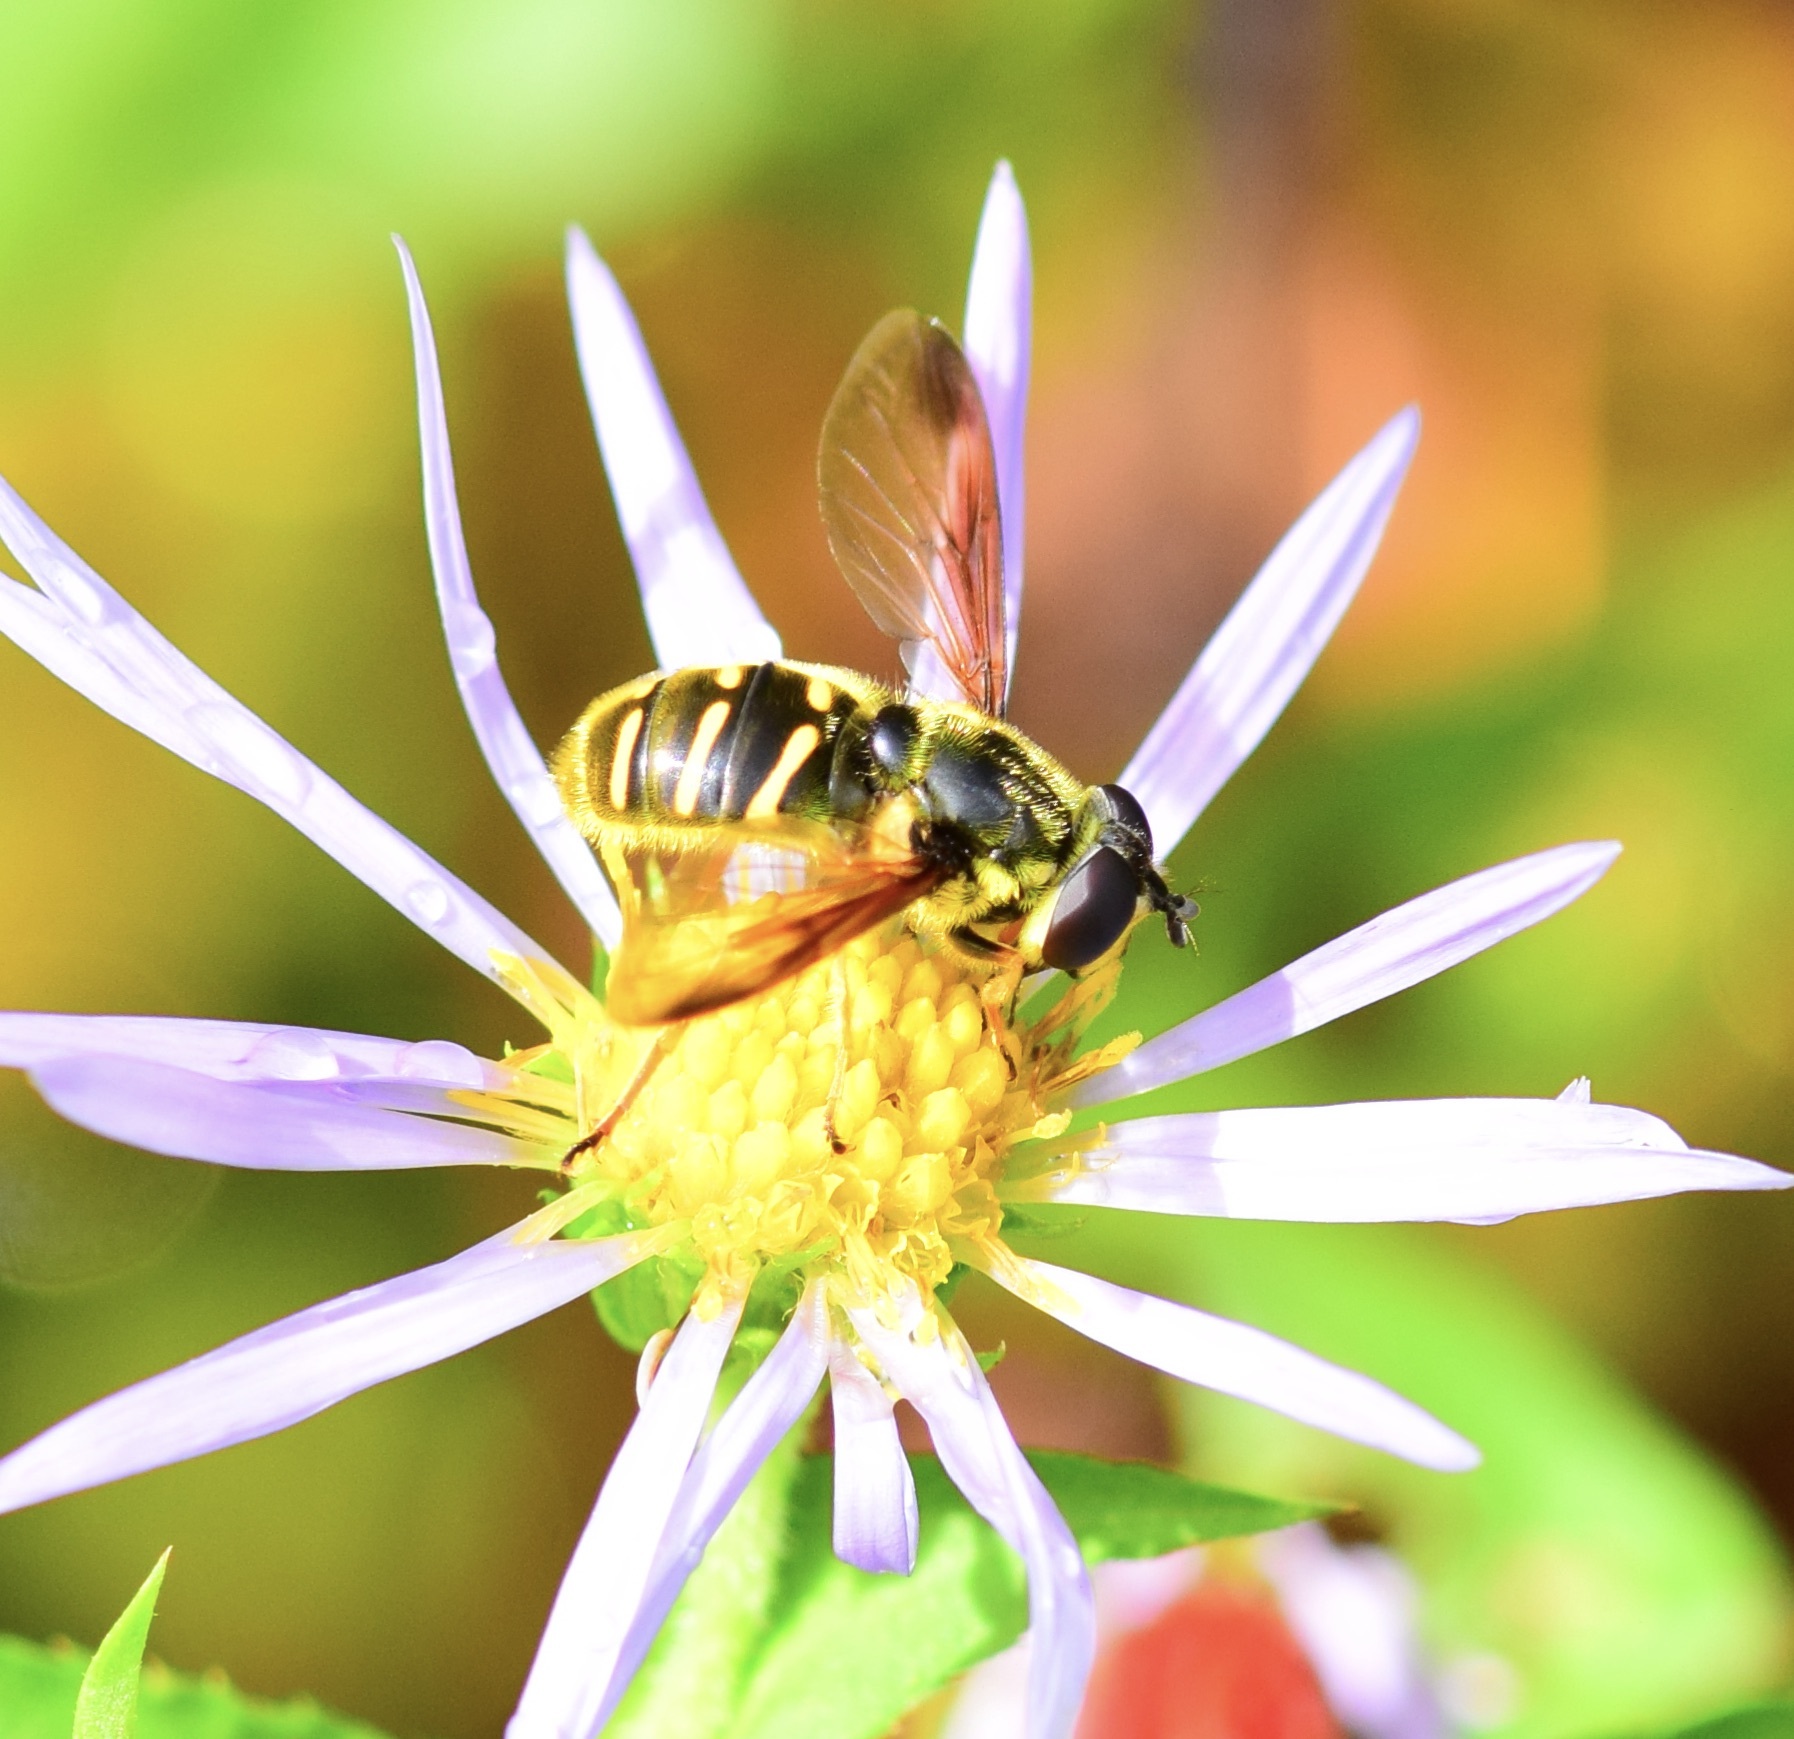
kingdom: Animalia
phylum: Arthropoda
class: Insecta
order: Diptera
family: Syrphidae
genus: Sericomyia
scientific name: Sericomyia chrysotoxoides
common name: Oblique-banded pond fly
